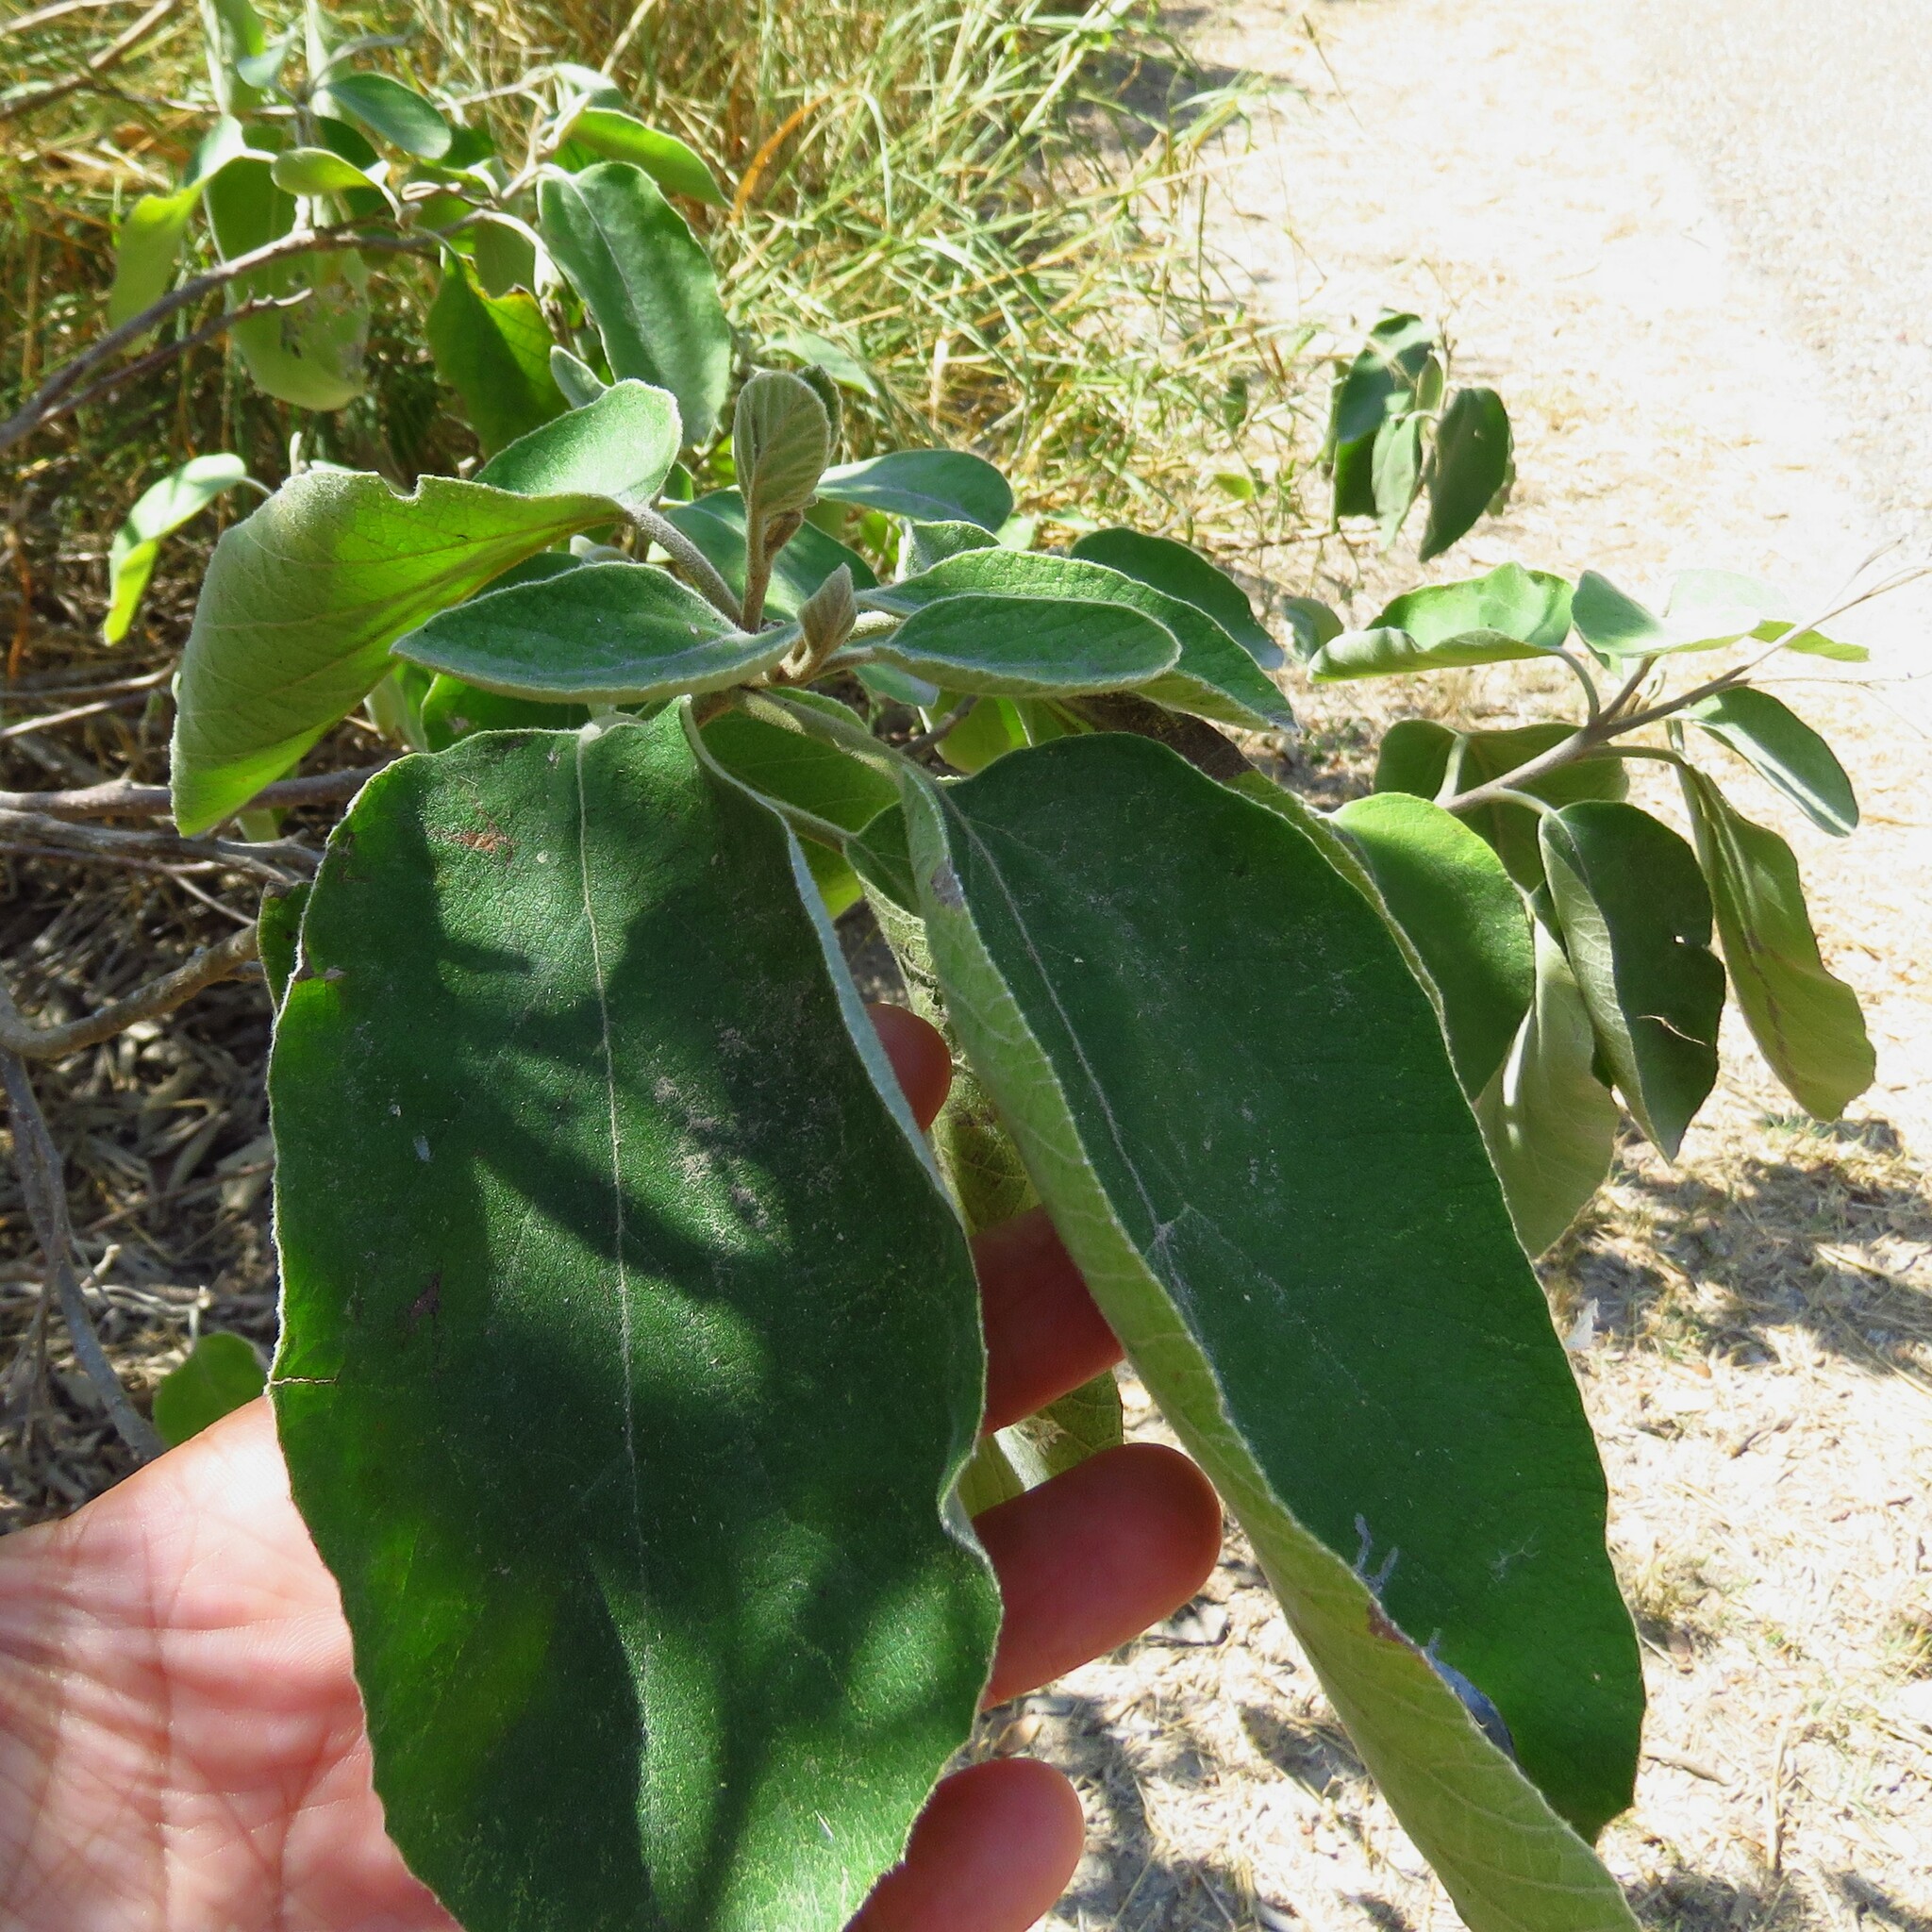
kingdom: Plantae
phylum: Tracheophyta
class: Magnoliopsida
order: Boraginales
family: Cordiaceae
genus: Cordia
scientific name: Cordia boissieri
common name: Mexican-olive
